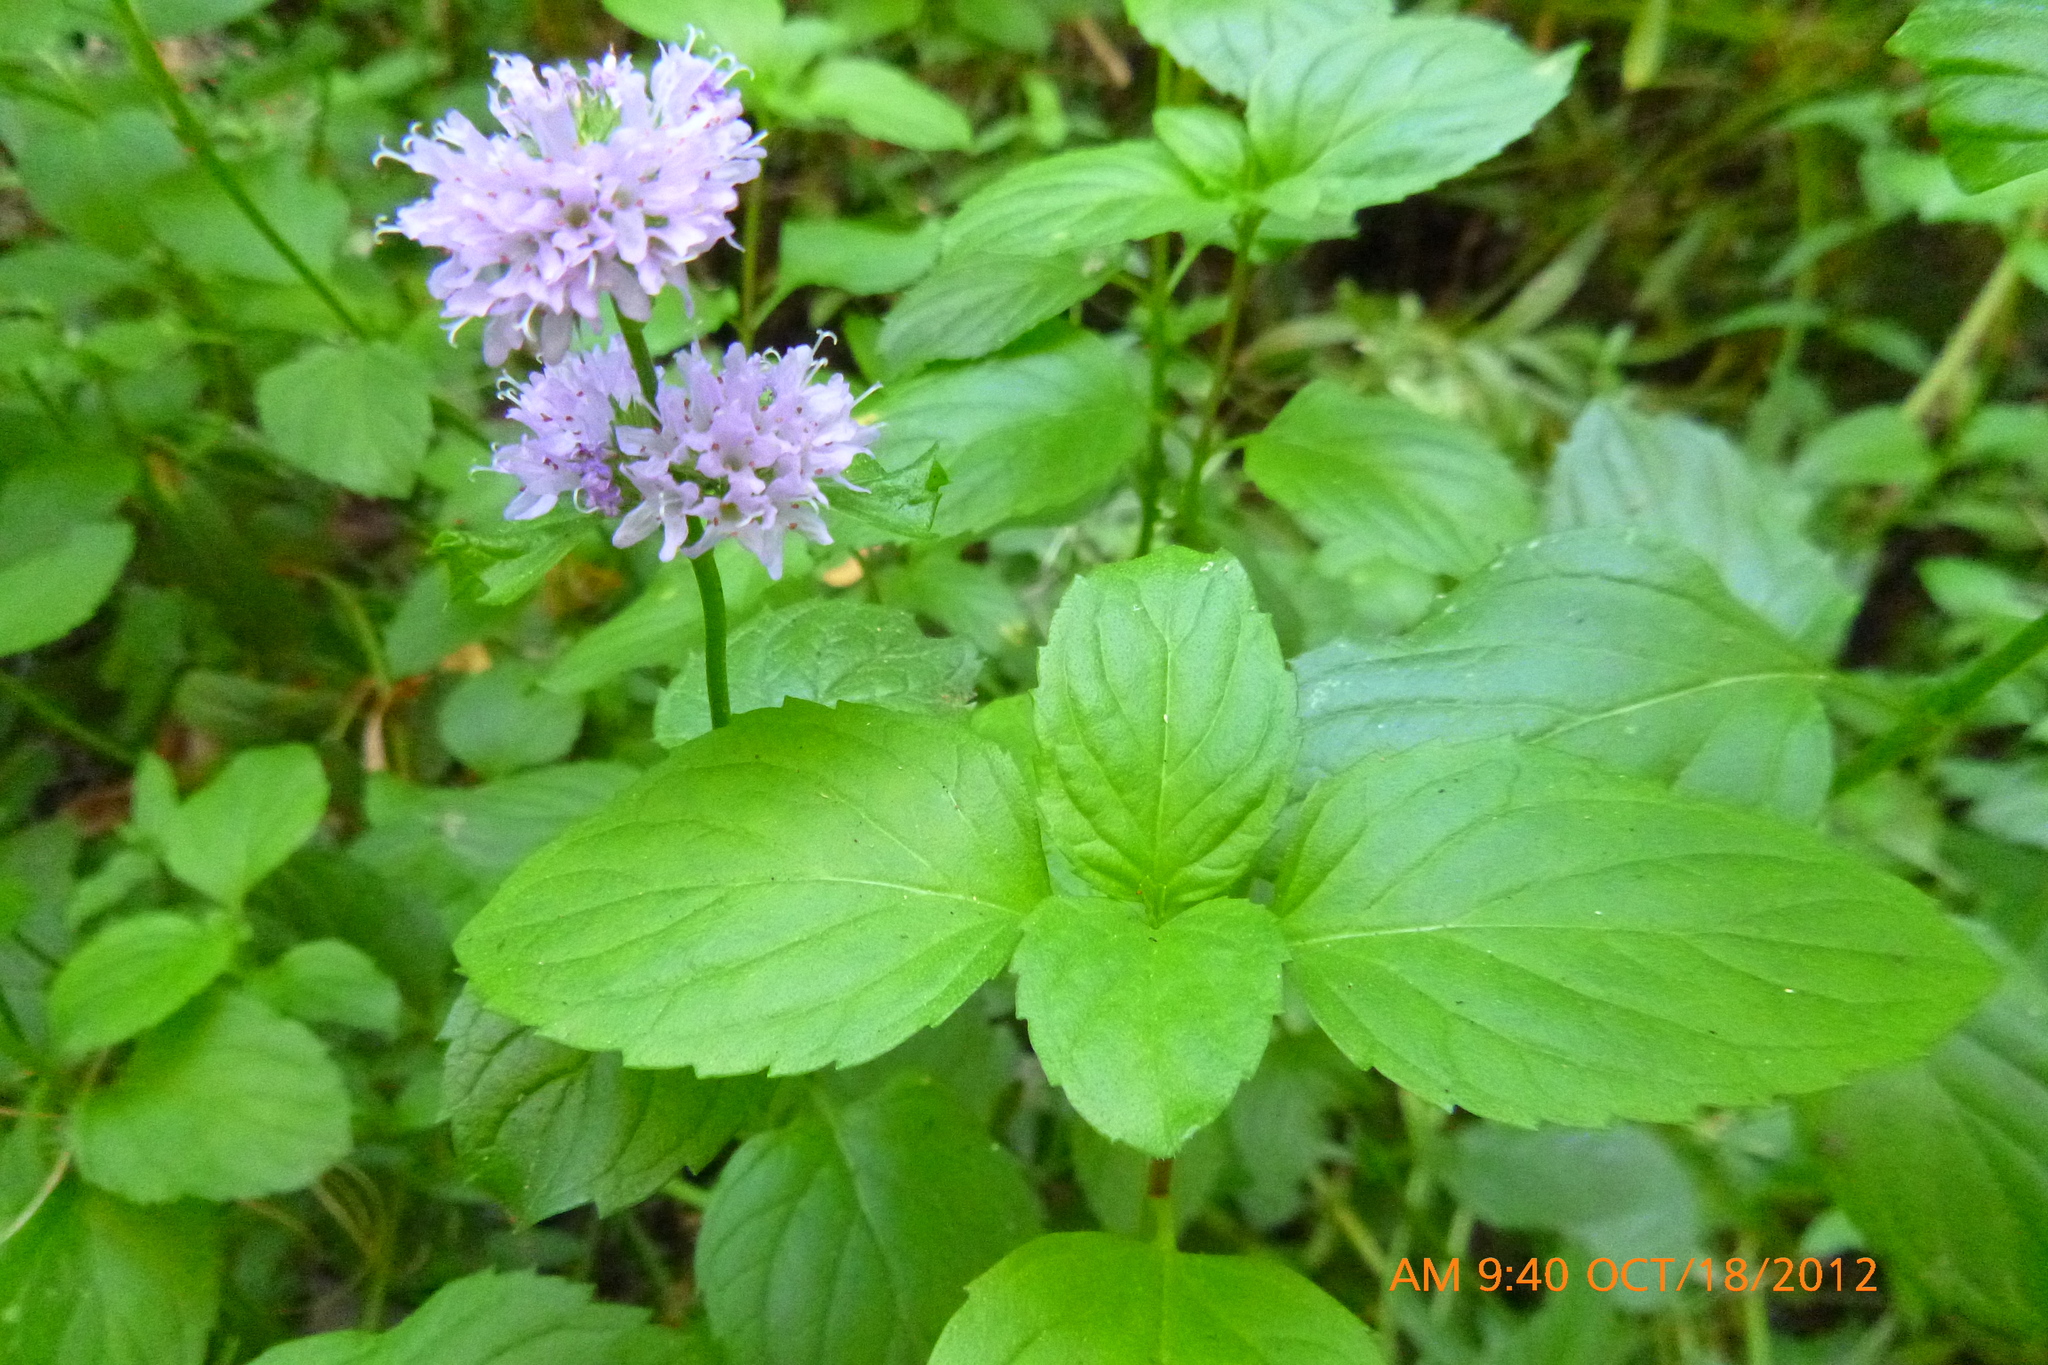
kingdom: Plantae
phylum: Tracheophyta
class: Magnoliopsida
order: Lamiales
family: Lamiaceae
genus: Mentha
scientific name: Mentha aquatica
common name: Water mint
